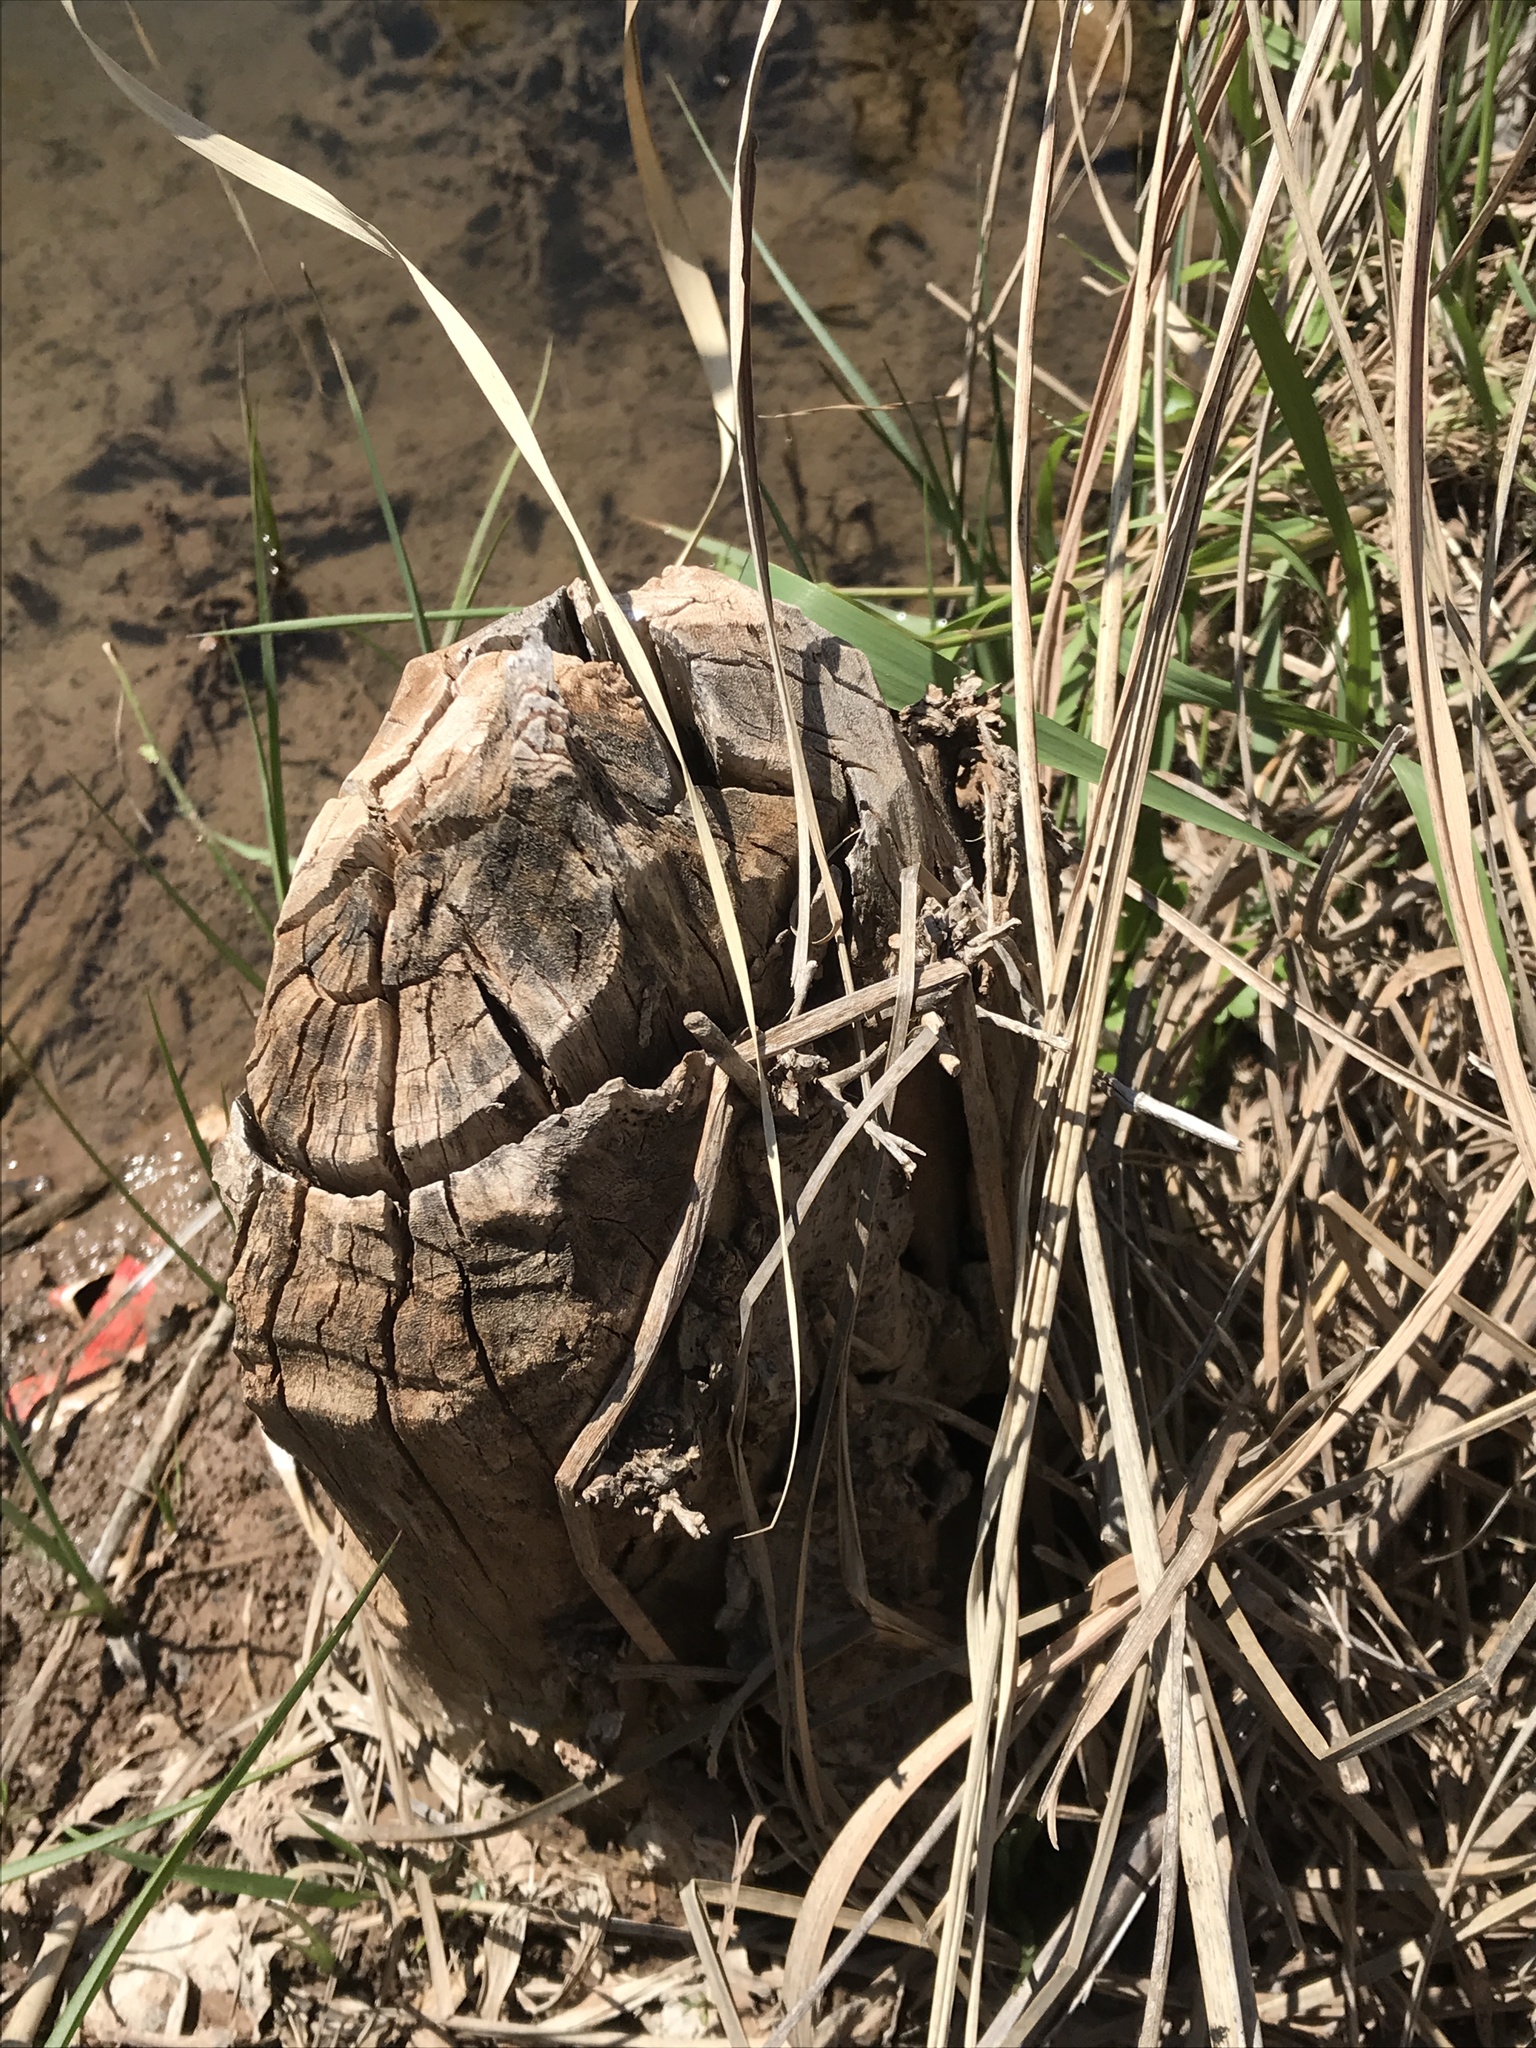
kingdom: Animalia
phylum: Chordata
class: Mammalia
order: Rodentia
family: Castoridae
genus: Castor
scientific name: Castor canadensis
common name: American beaver
